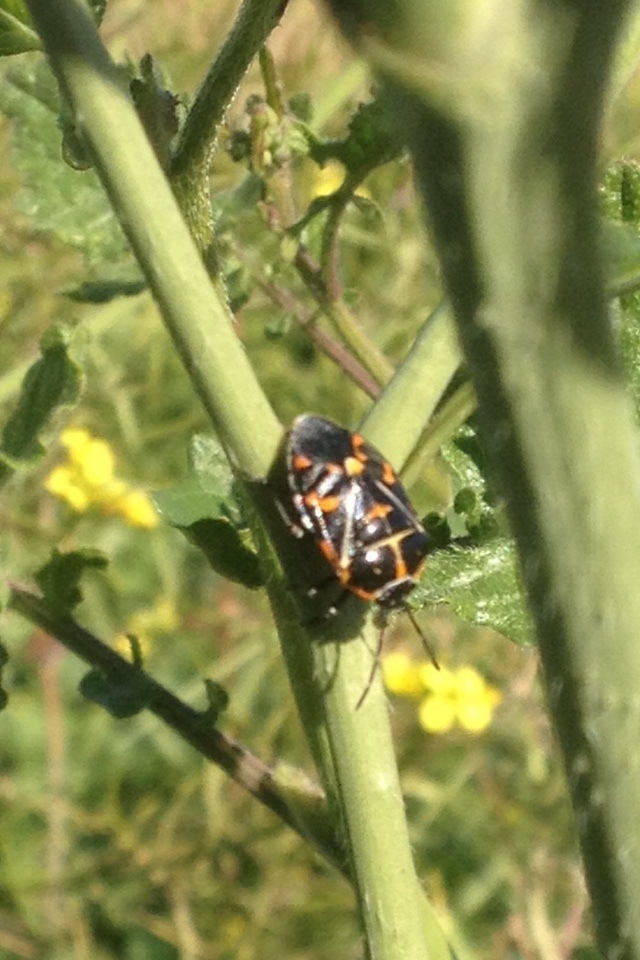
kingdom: Animalia
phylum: Arthropoda
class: Insecta
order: Hemiptera
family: Pentatomidae
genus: Murgantia
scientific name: Murgantia histrionica
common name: Harlequin bug
